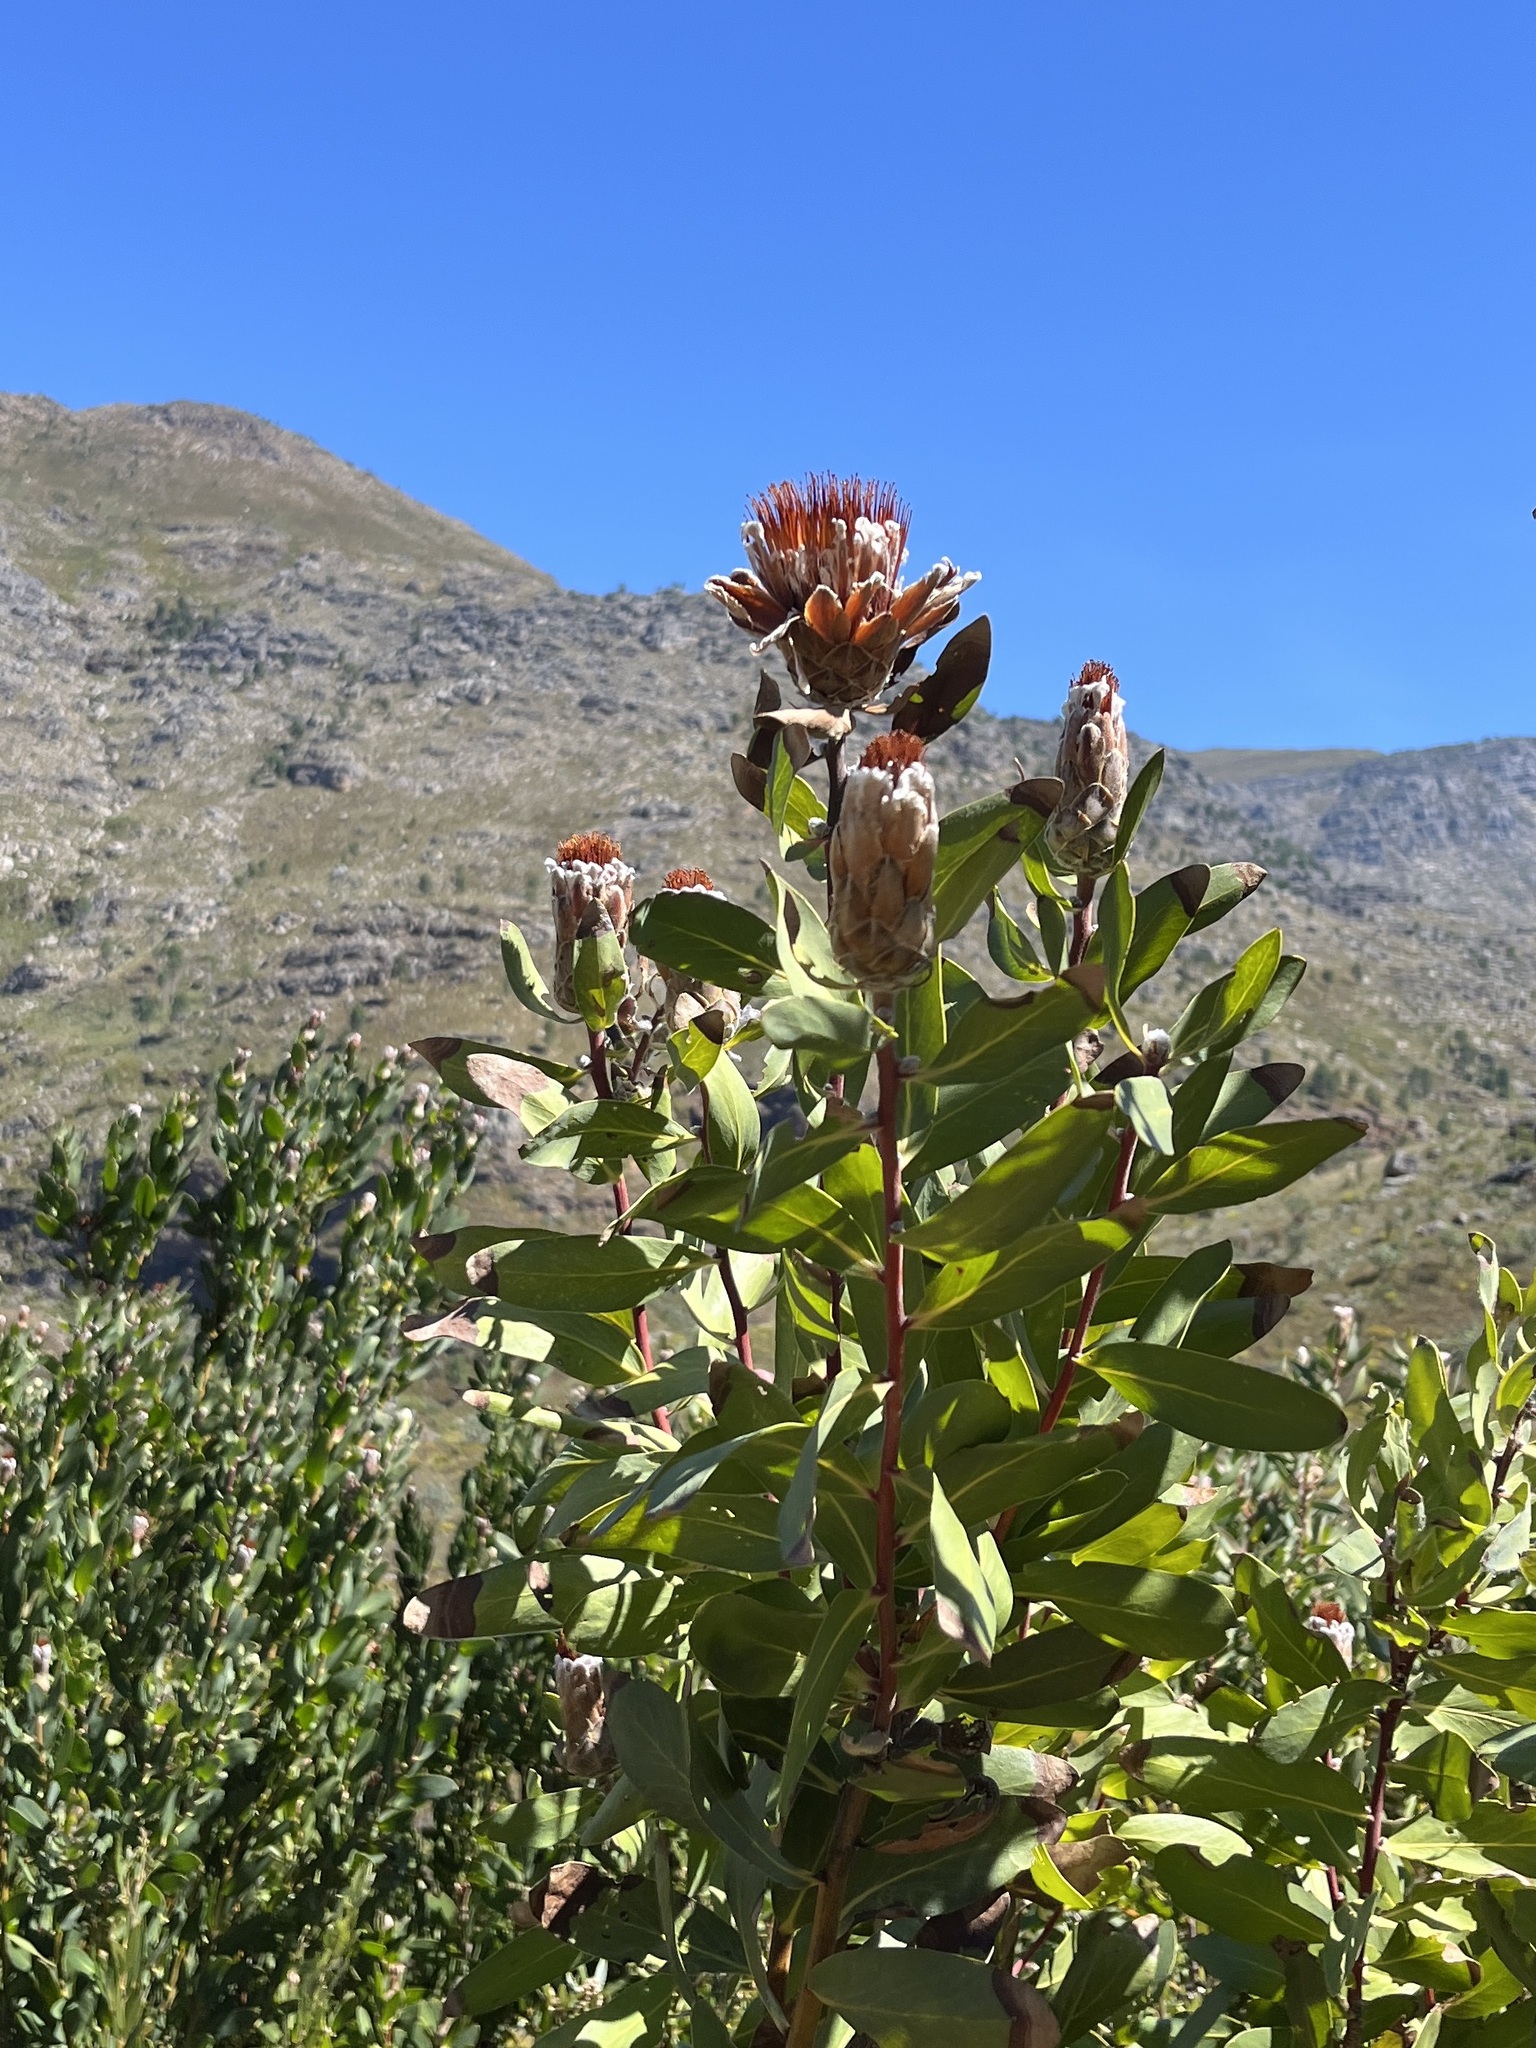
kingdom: Plantae
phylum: Tracheophyta
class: Magnoliopsida
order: Proteales
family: Proteaceae
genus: Protea
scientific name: Protea mundii
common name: Forest sugarbush
